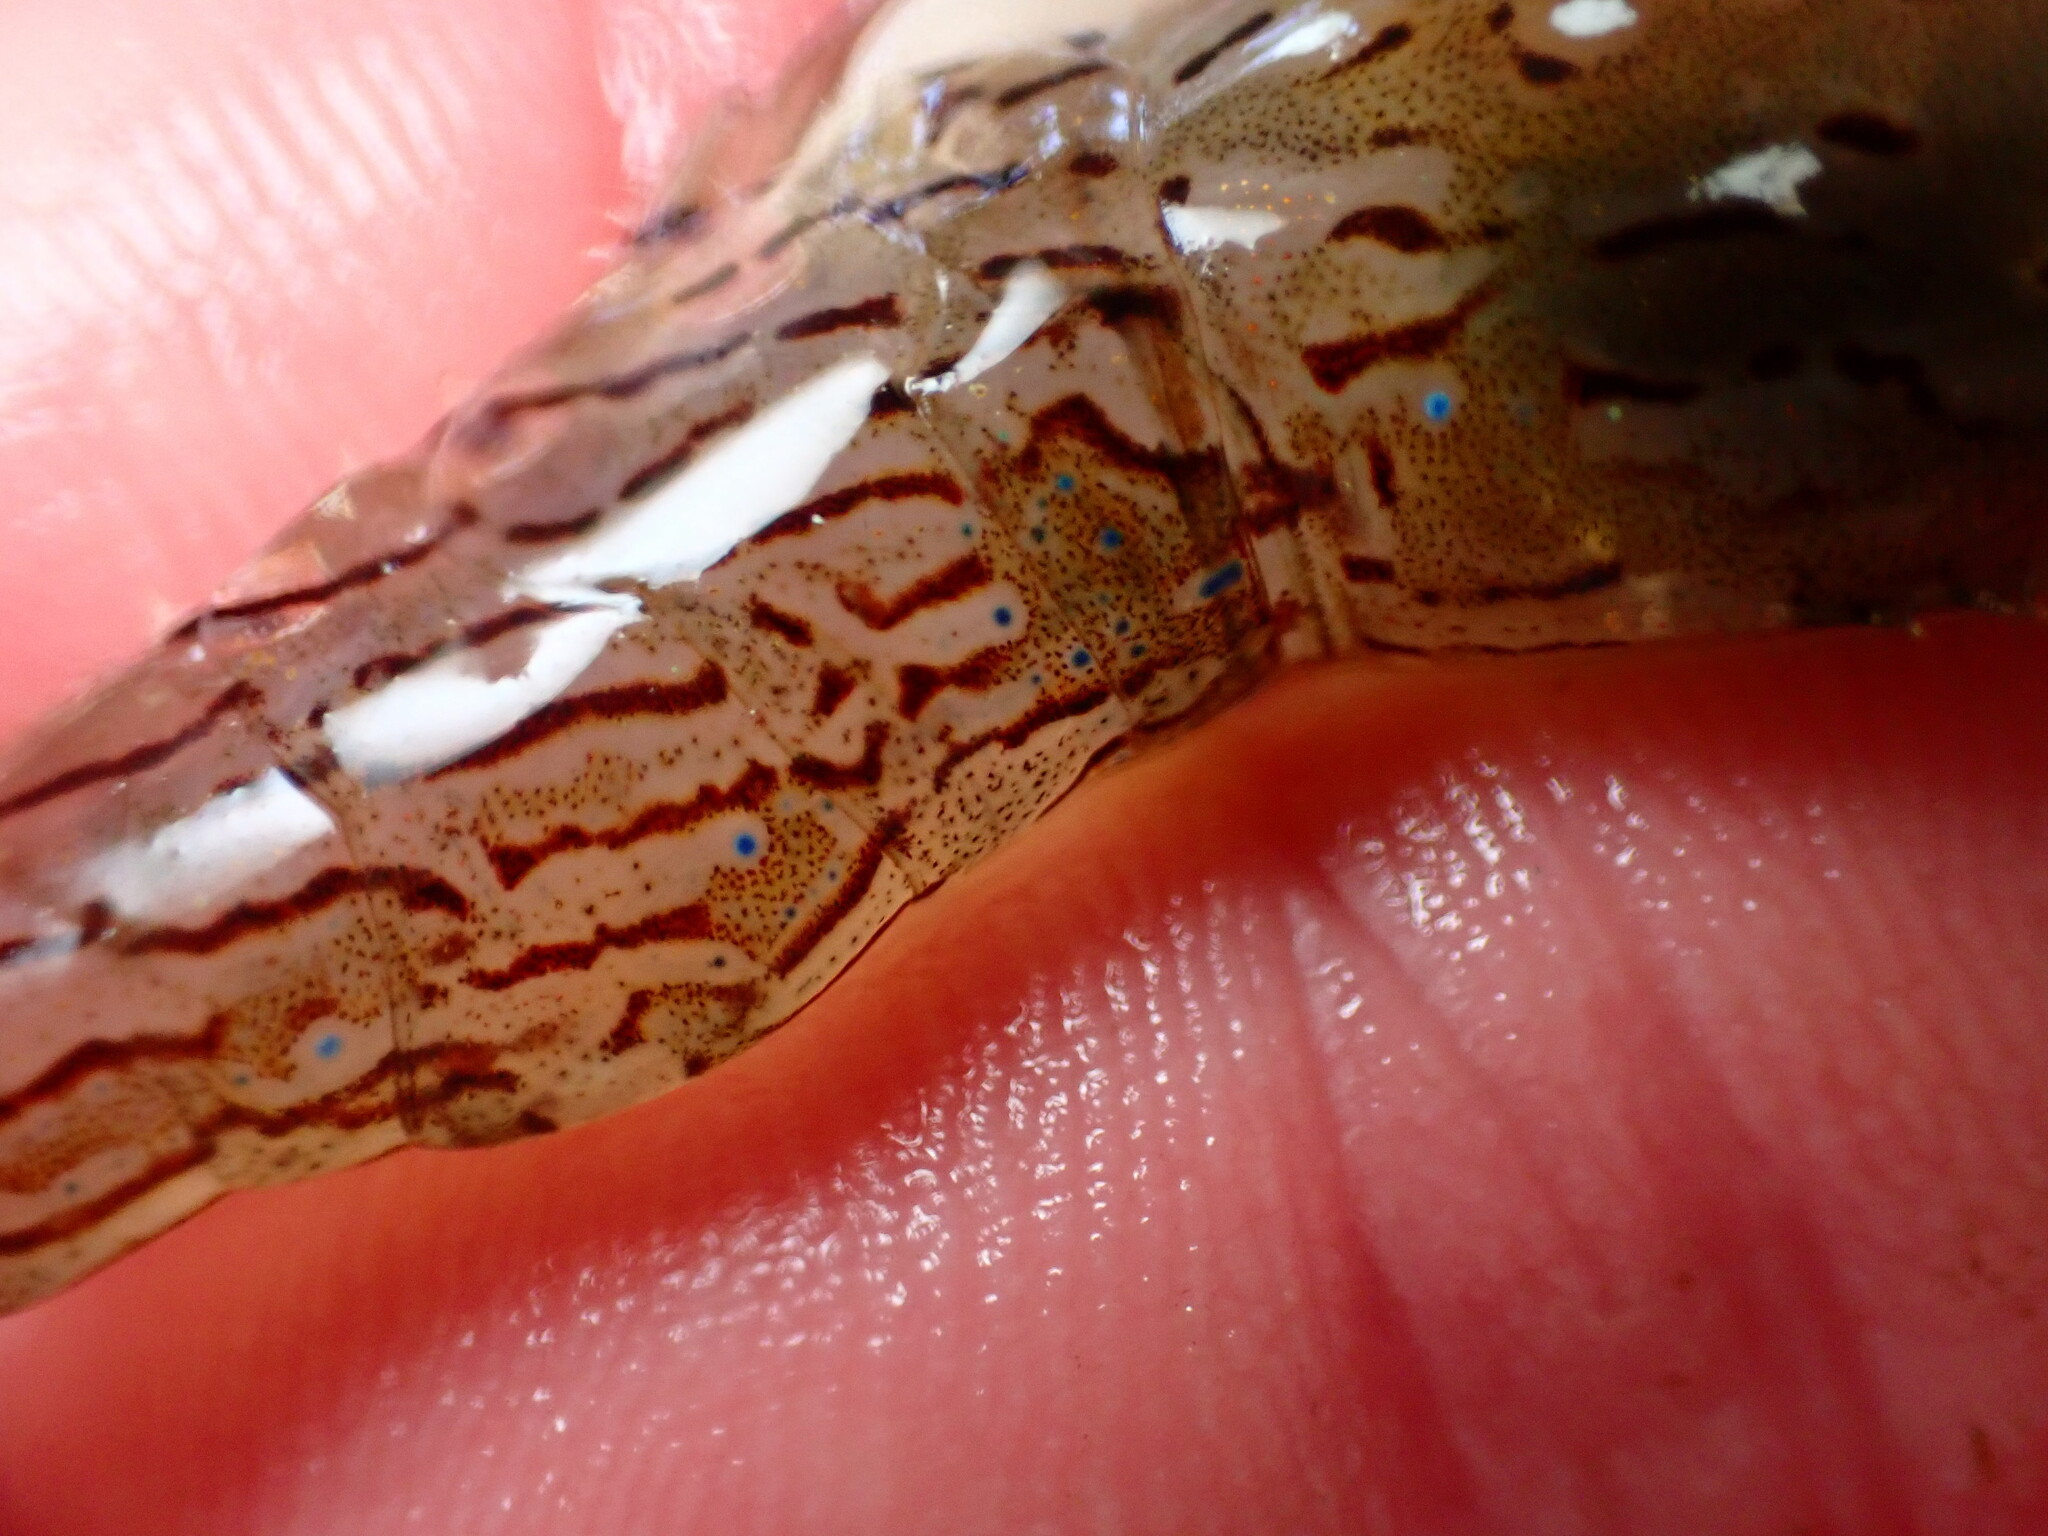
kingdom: Animalia
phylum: Arthropoda
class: Malacostraca
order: Decapoda
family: Pandalidae
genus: Pandalus
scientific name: Pandalus danae
